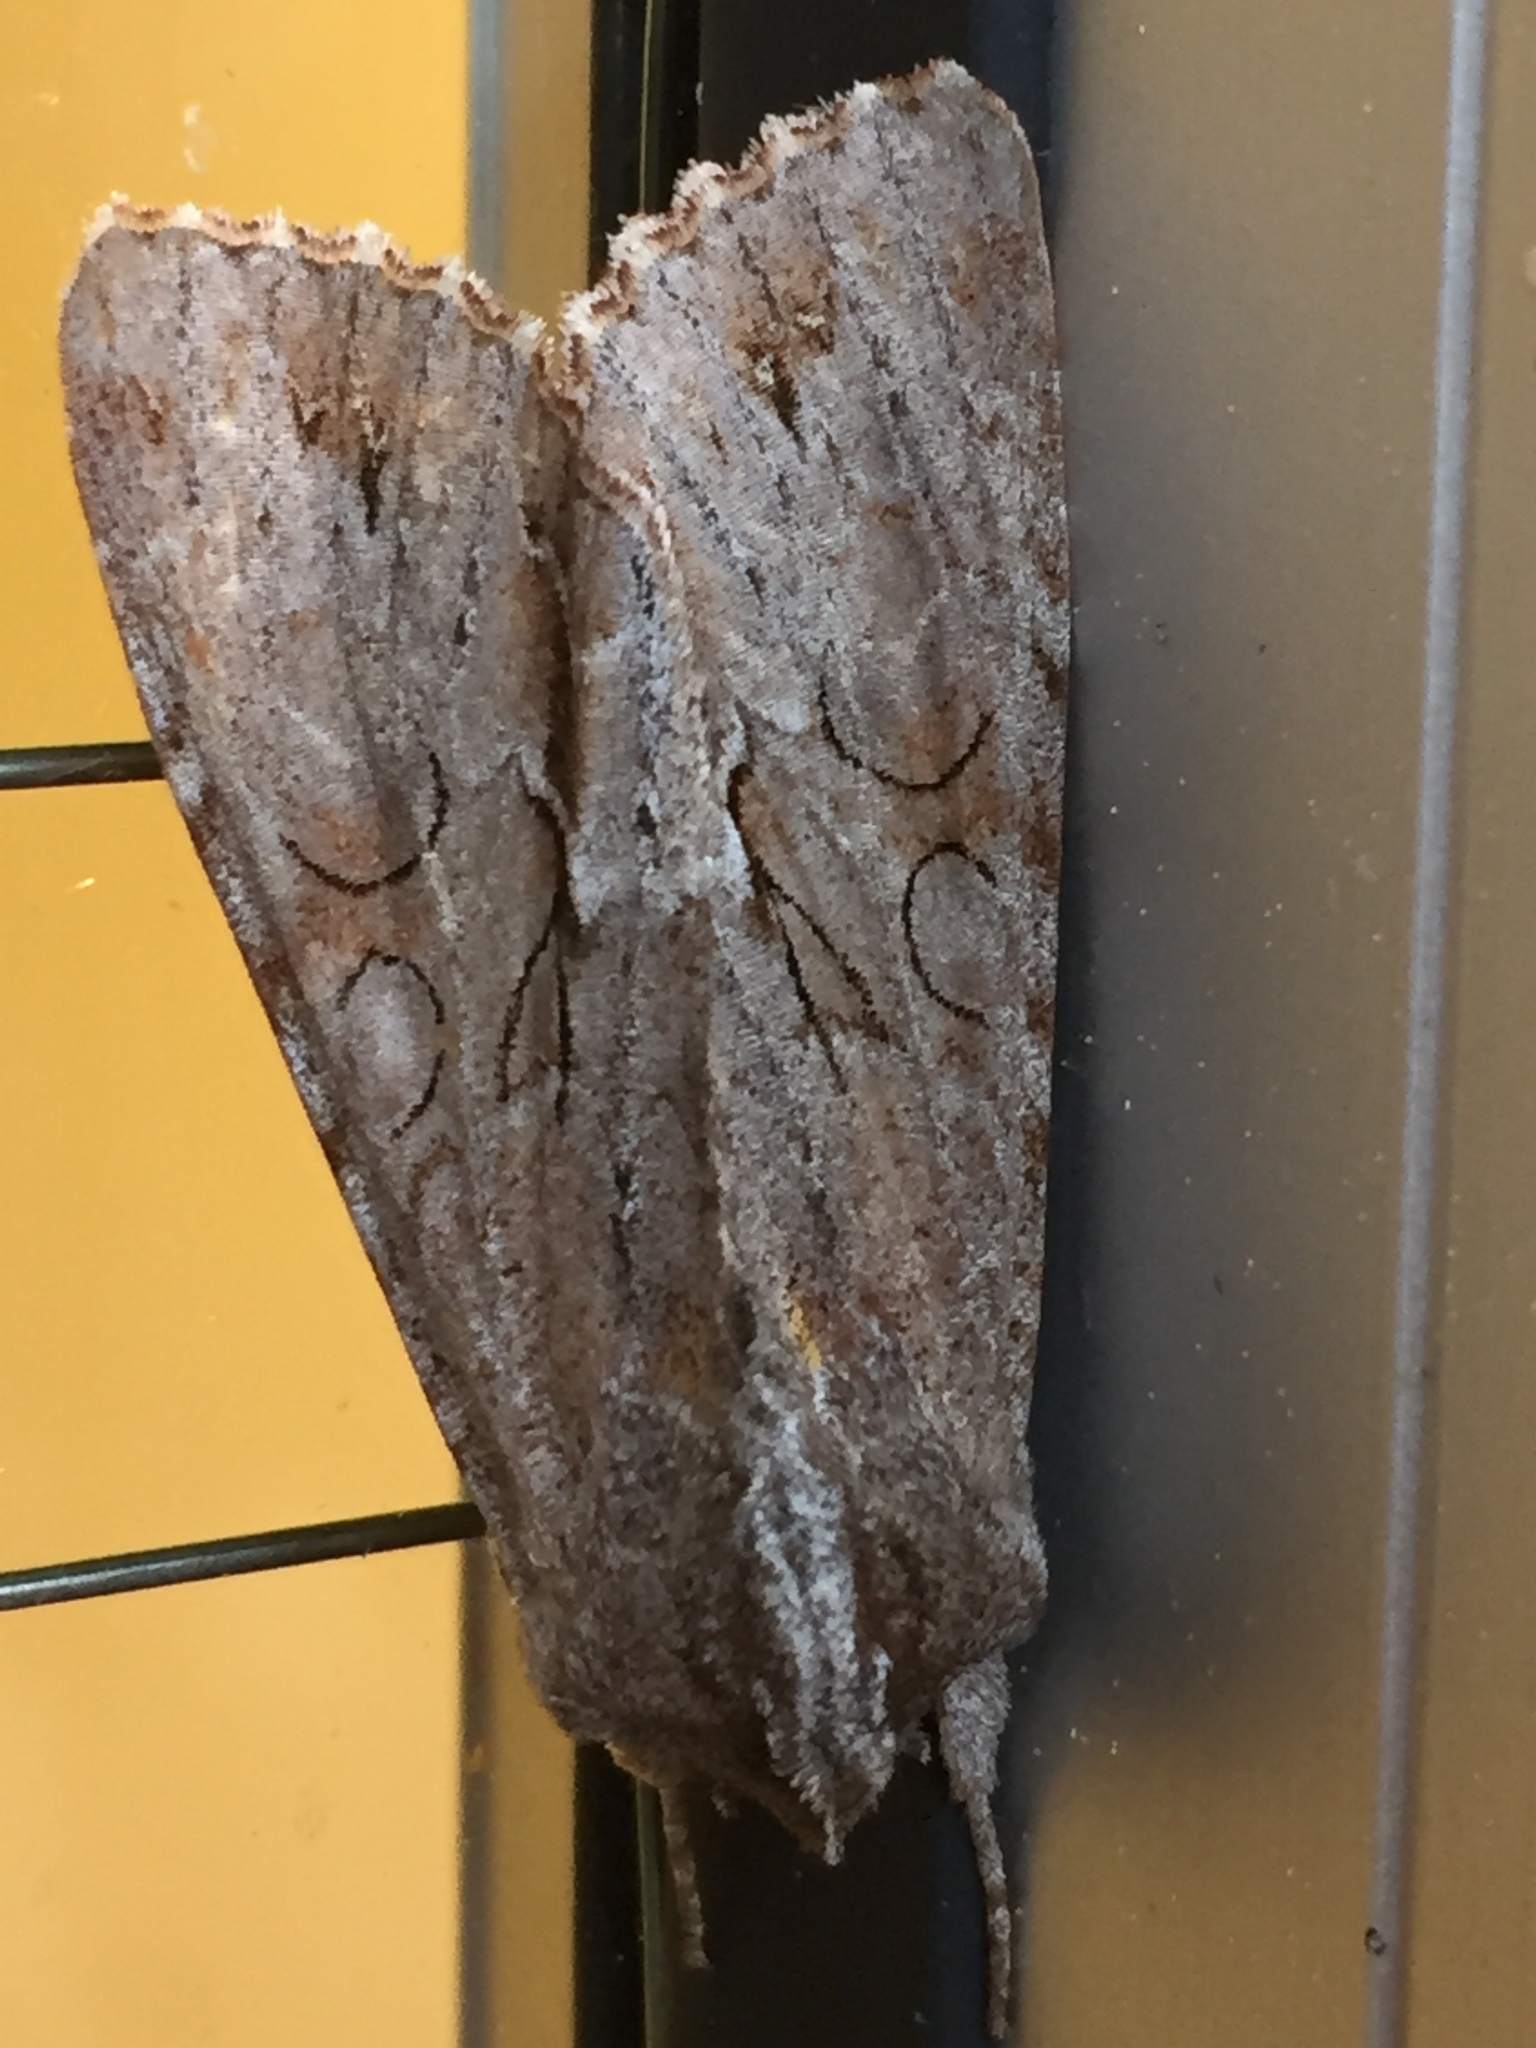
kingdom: Animalia
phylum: Arthropoda
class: Insecta
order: Lepidoptera
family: Noctuidae
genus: Ichneutica
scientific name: Ichneutica
